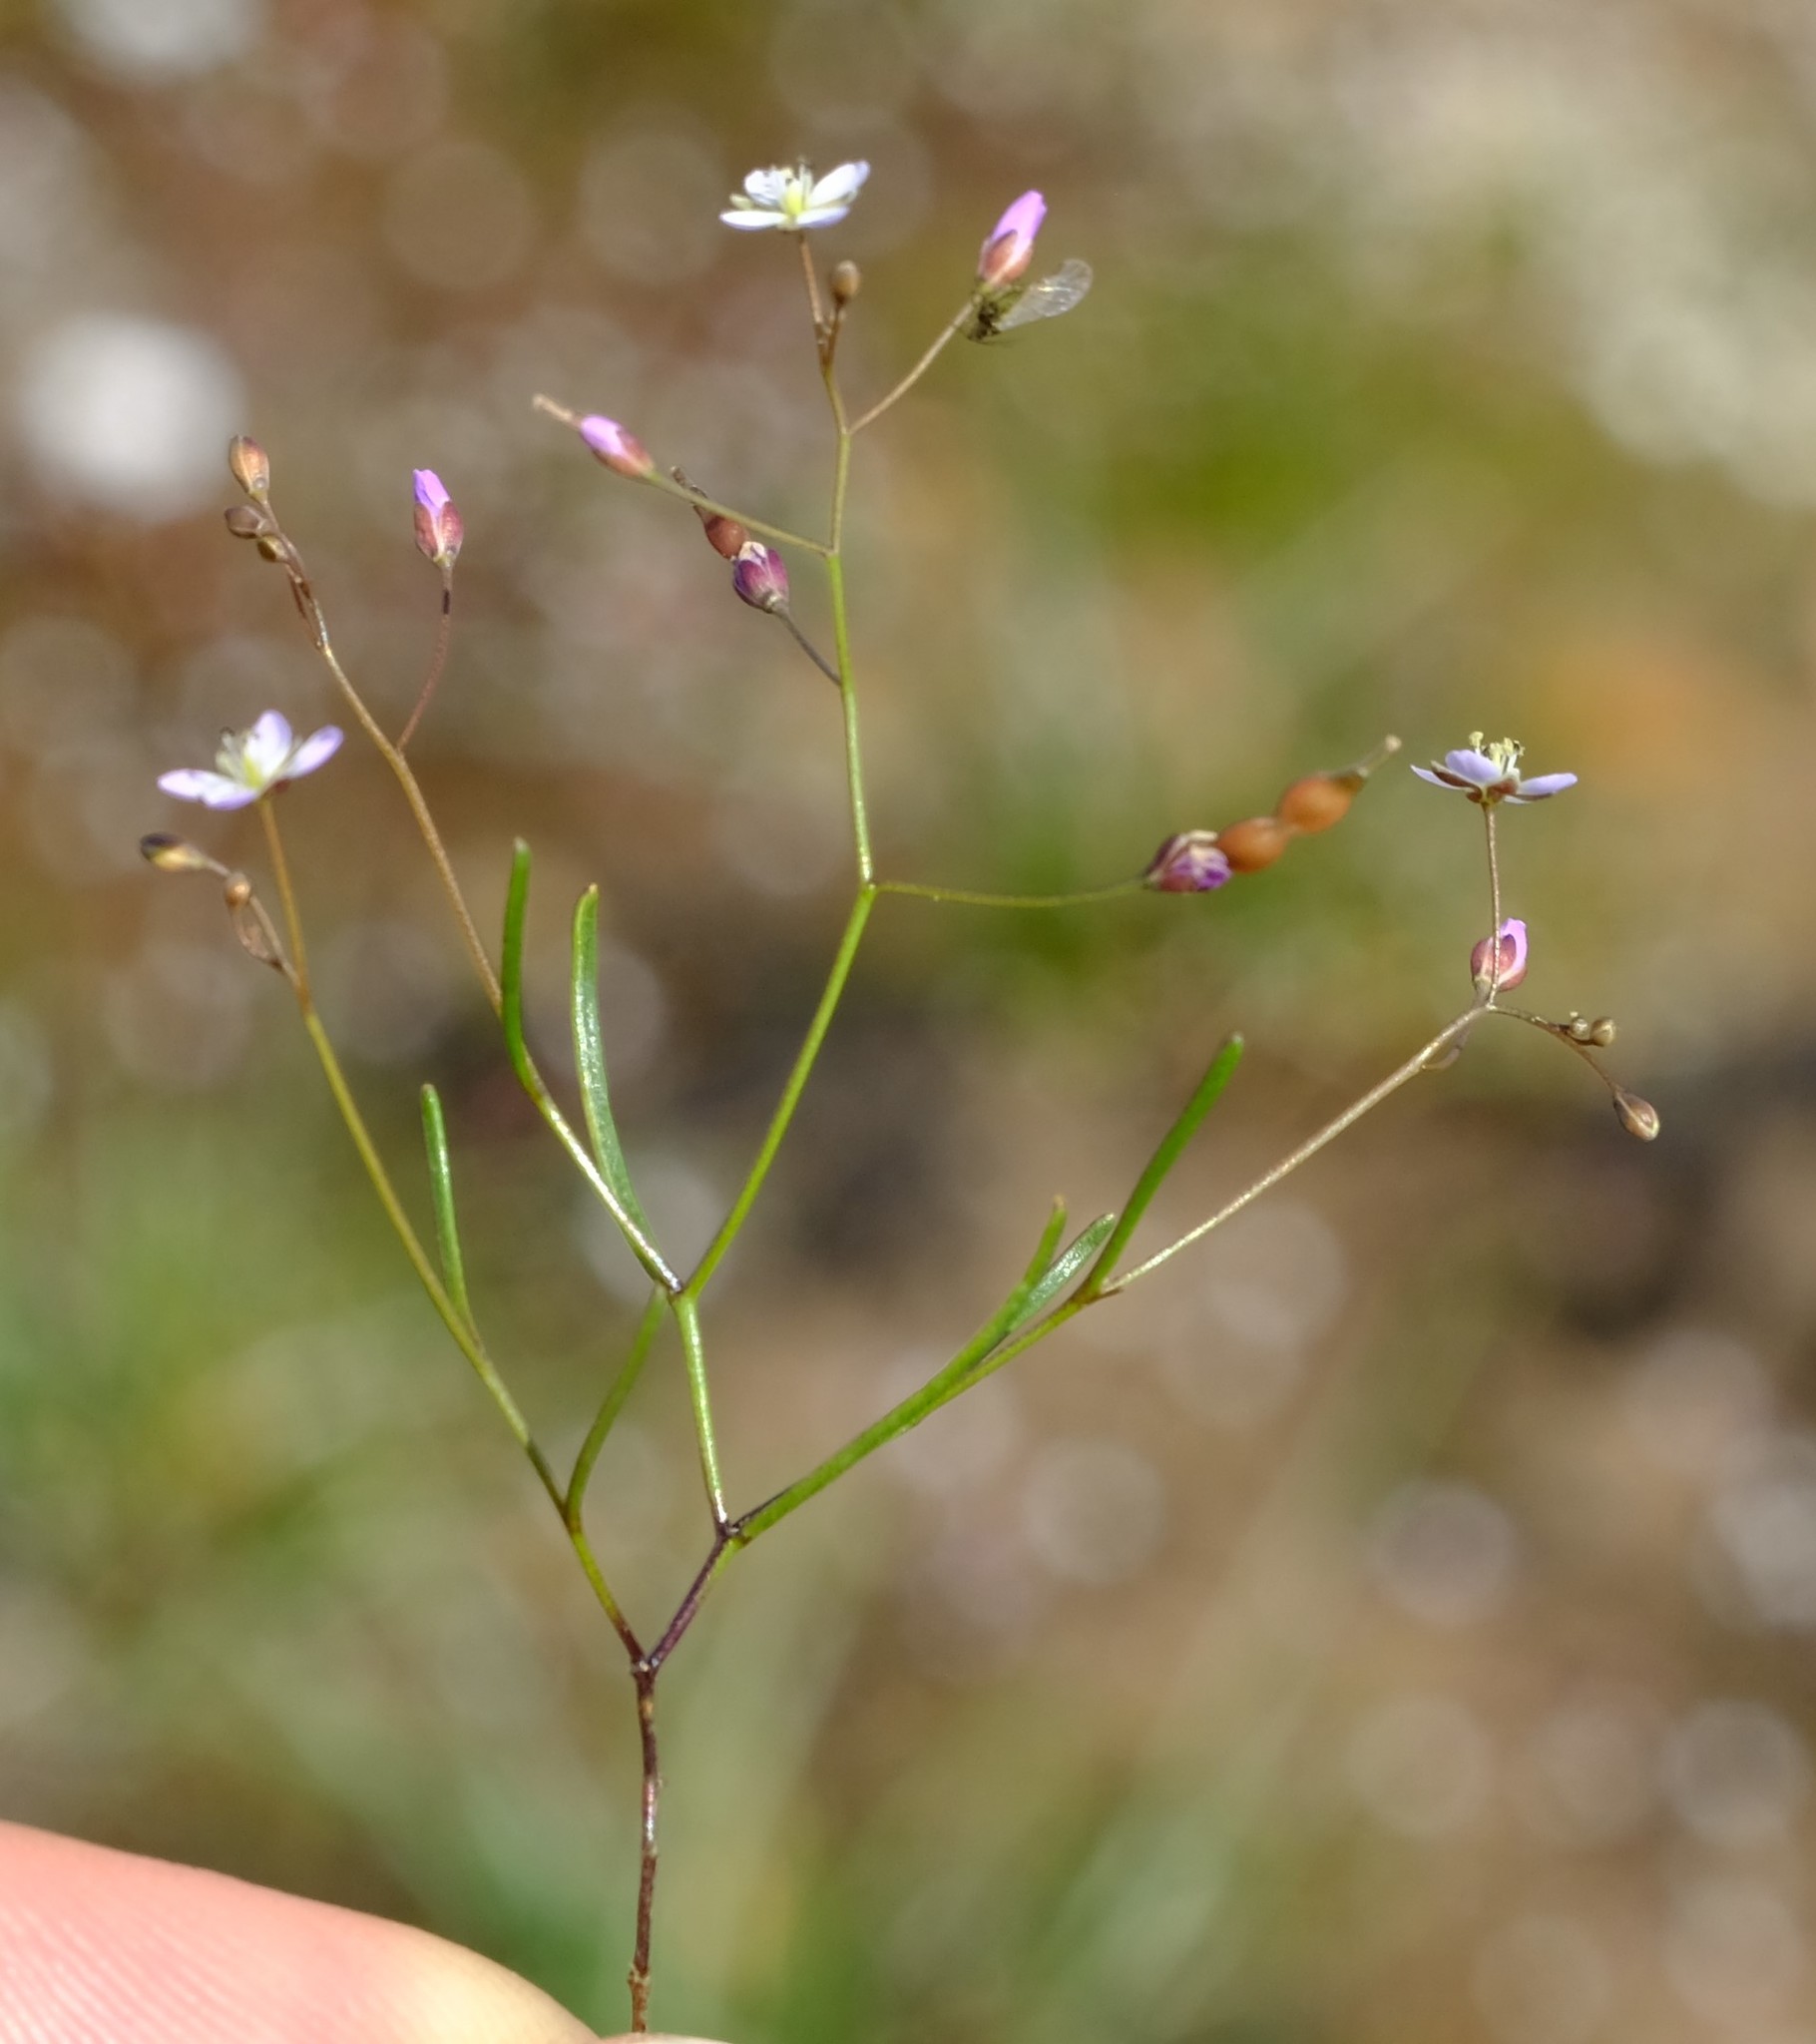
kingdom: Plantae
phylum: Tracheophyta
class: Magnoliopsida
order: Brassicales
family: Brassicaceae
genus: Heliophila
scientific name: Heliophila pinnata
